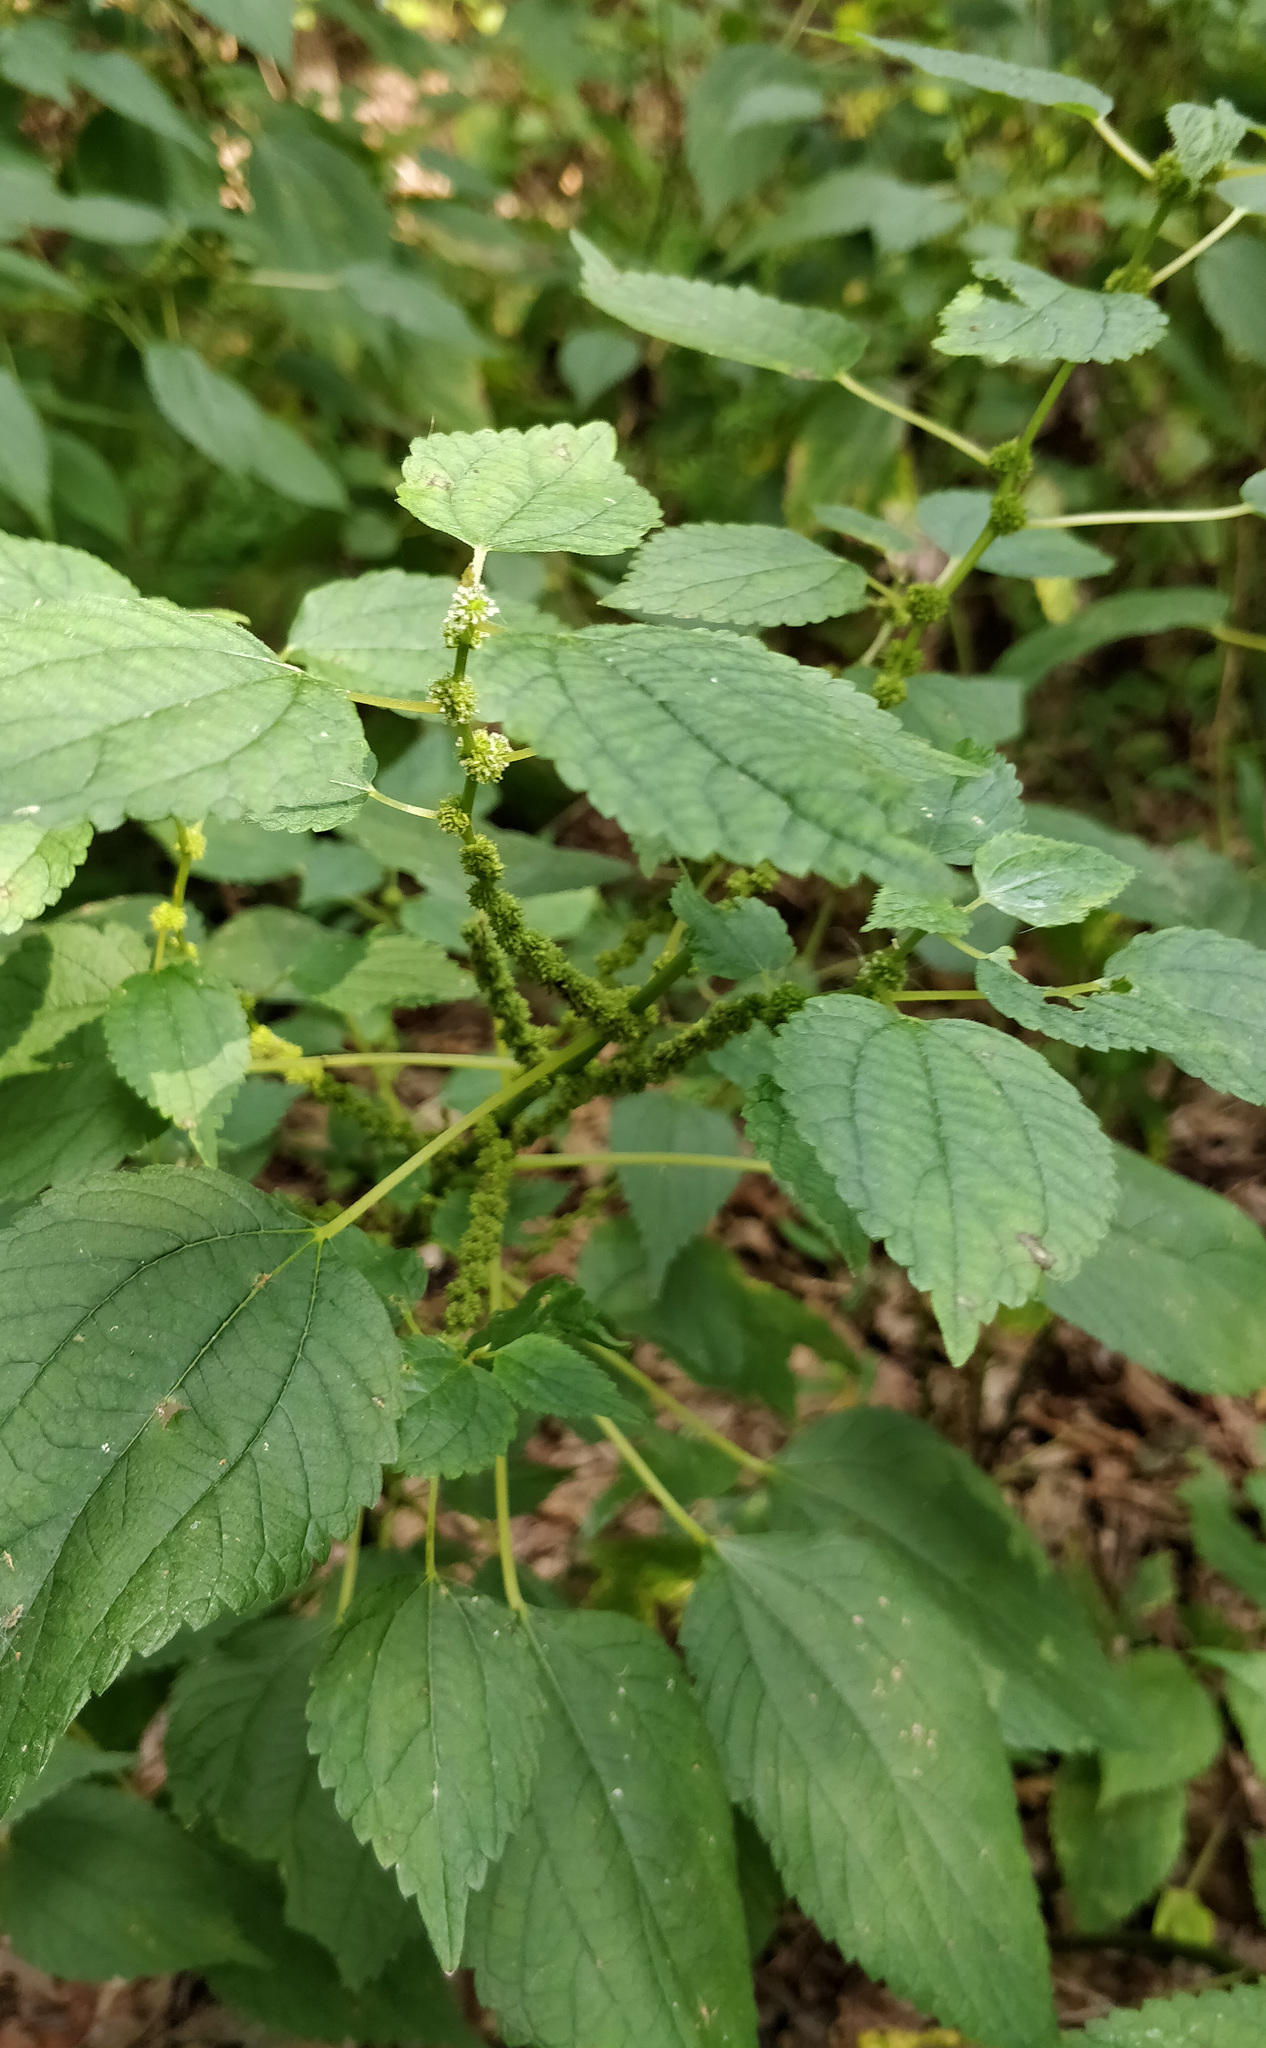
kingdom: Plantae
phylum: Tracheophyta
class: Magnoliopsida
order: Rosales
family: Urticaceae
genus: Boehmeria
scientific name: Boehmeria cylindrica
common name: Bog-hemp
